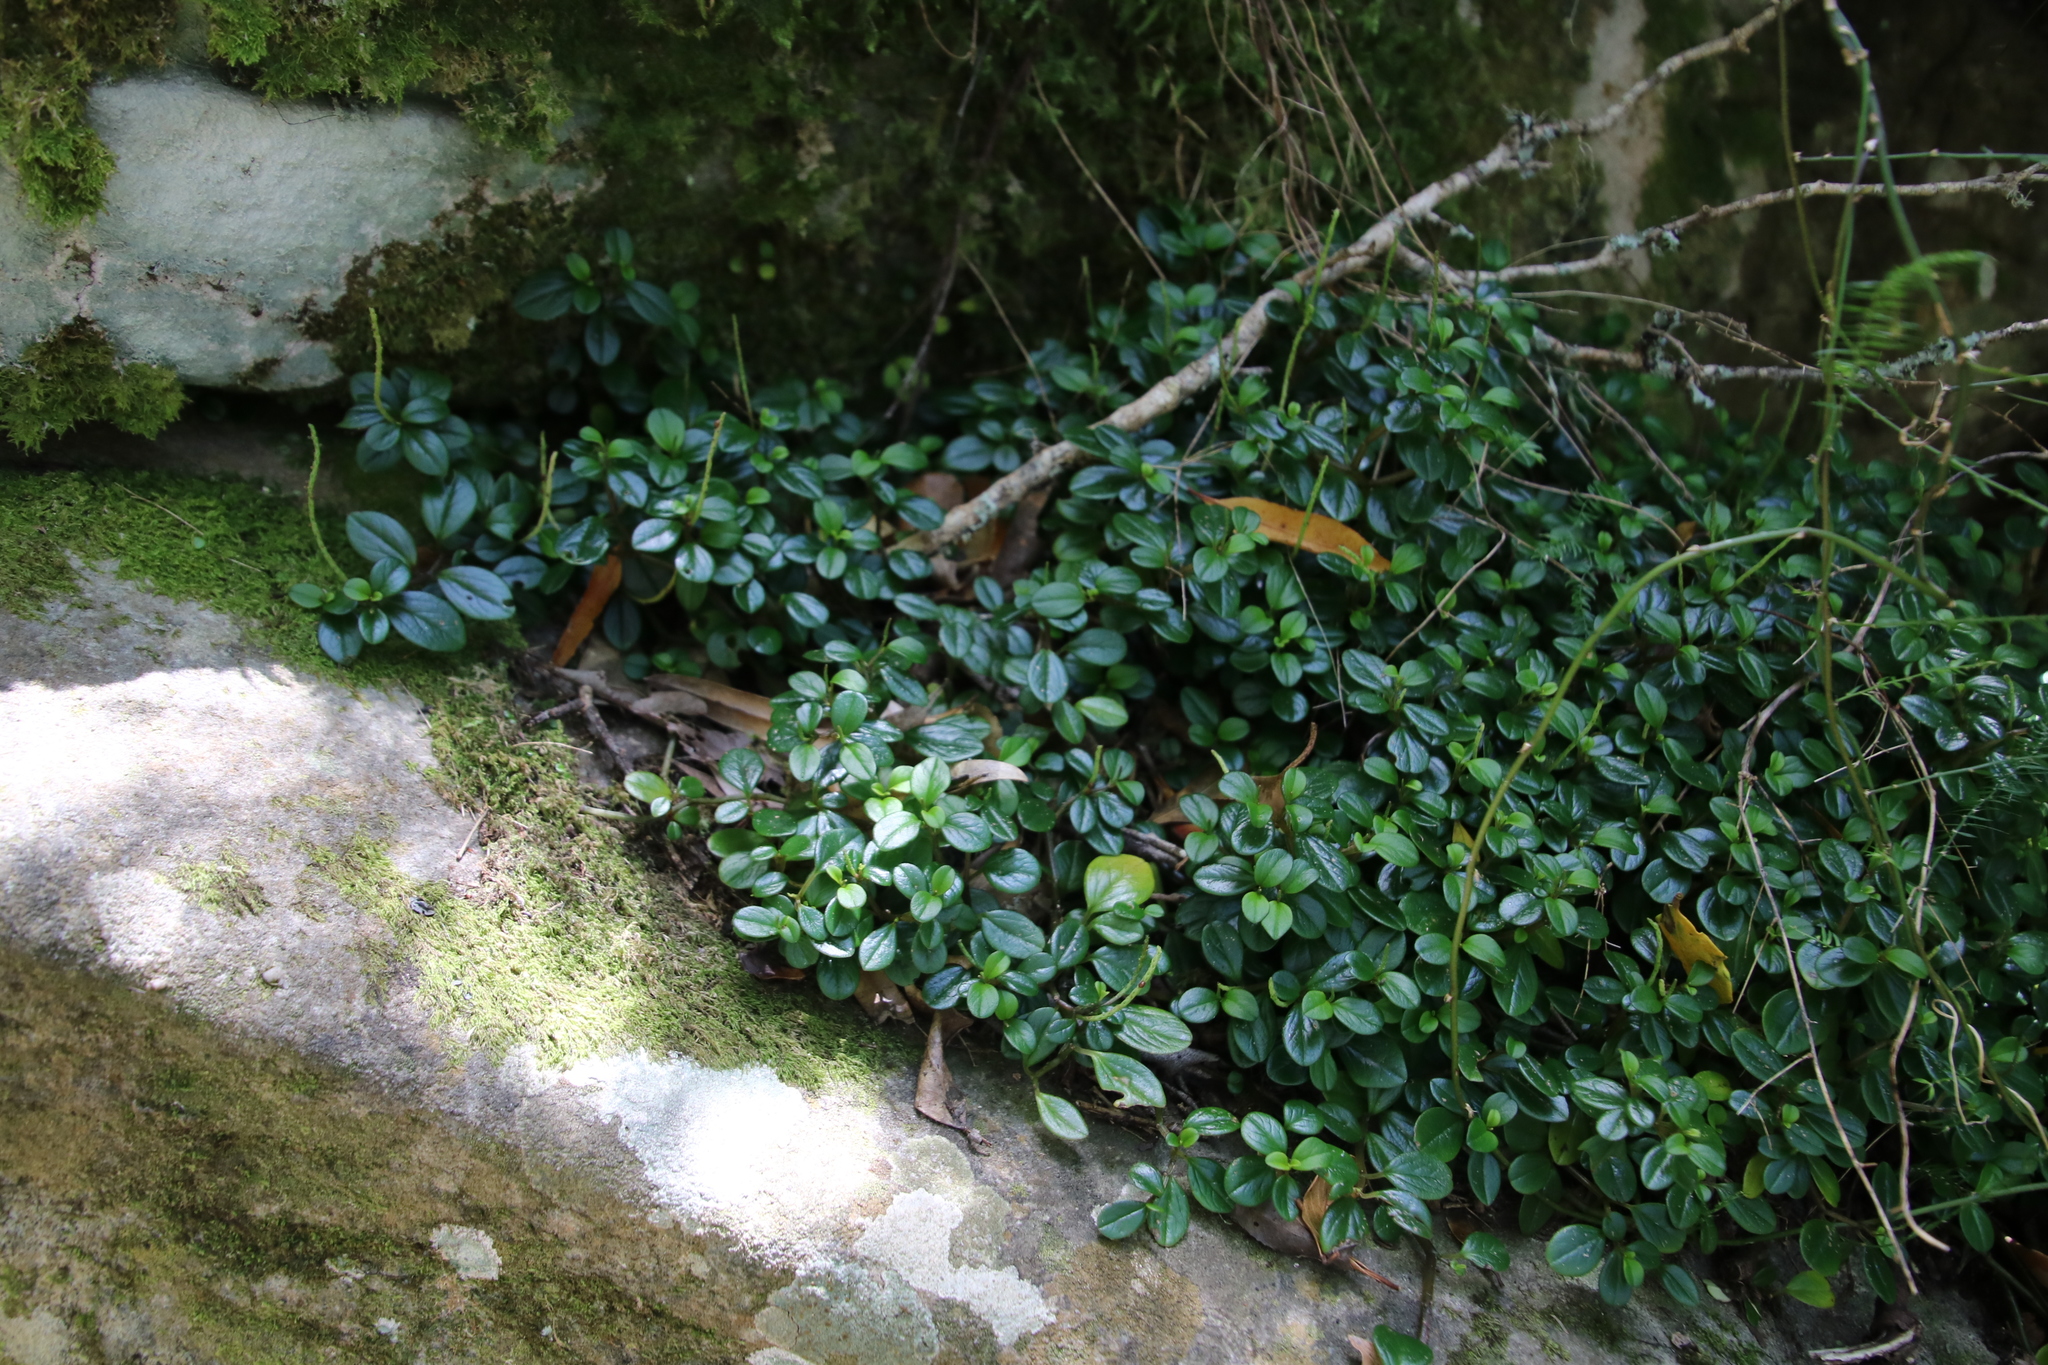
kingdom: Plantae
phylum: Tracheophyta
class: Magnoliopsida
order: Piperales
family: Piperaceae
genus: Peperomia
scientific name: Peperomia retusa
